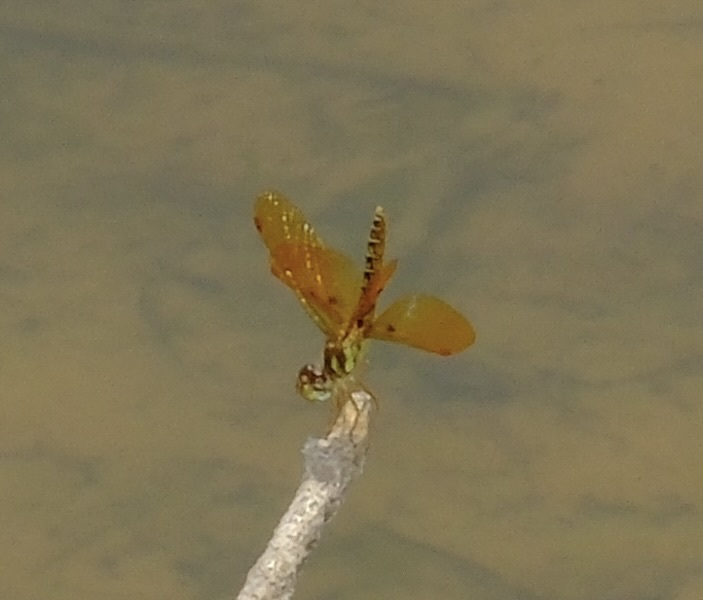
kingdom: Animalia
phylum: Arthropoda
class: Insecta
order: Odonata
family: Libellulidae
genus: Perithemis
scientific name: Perithemis tenera
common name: Eastern amberwing
